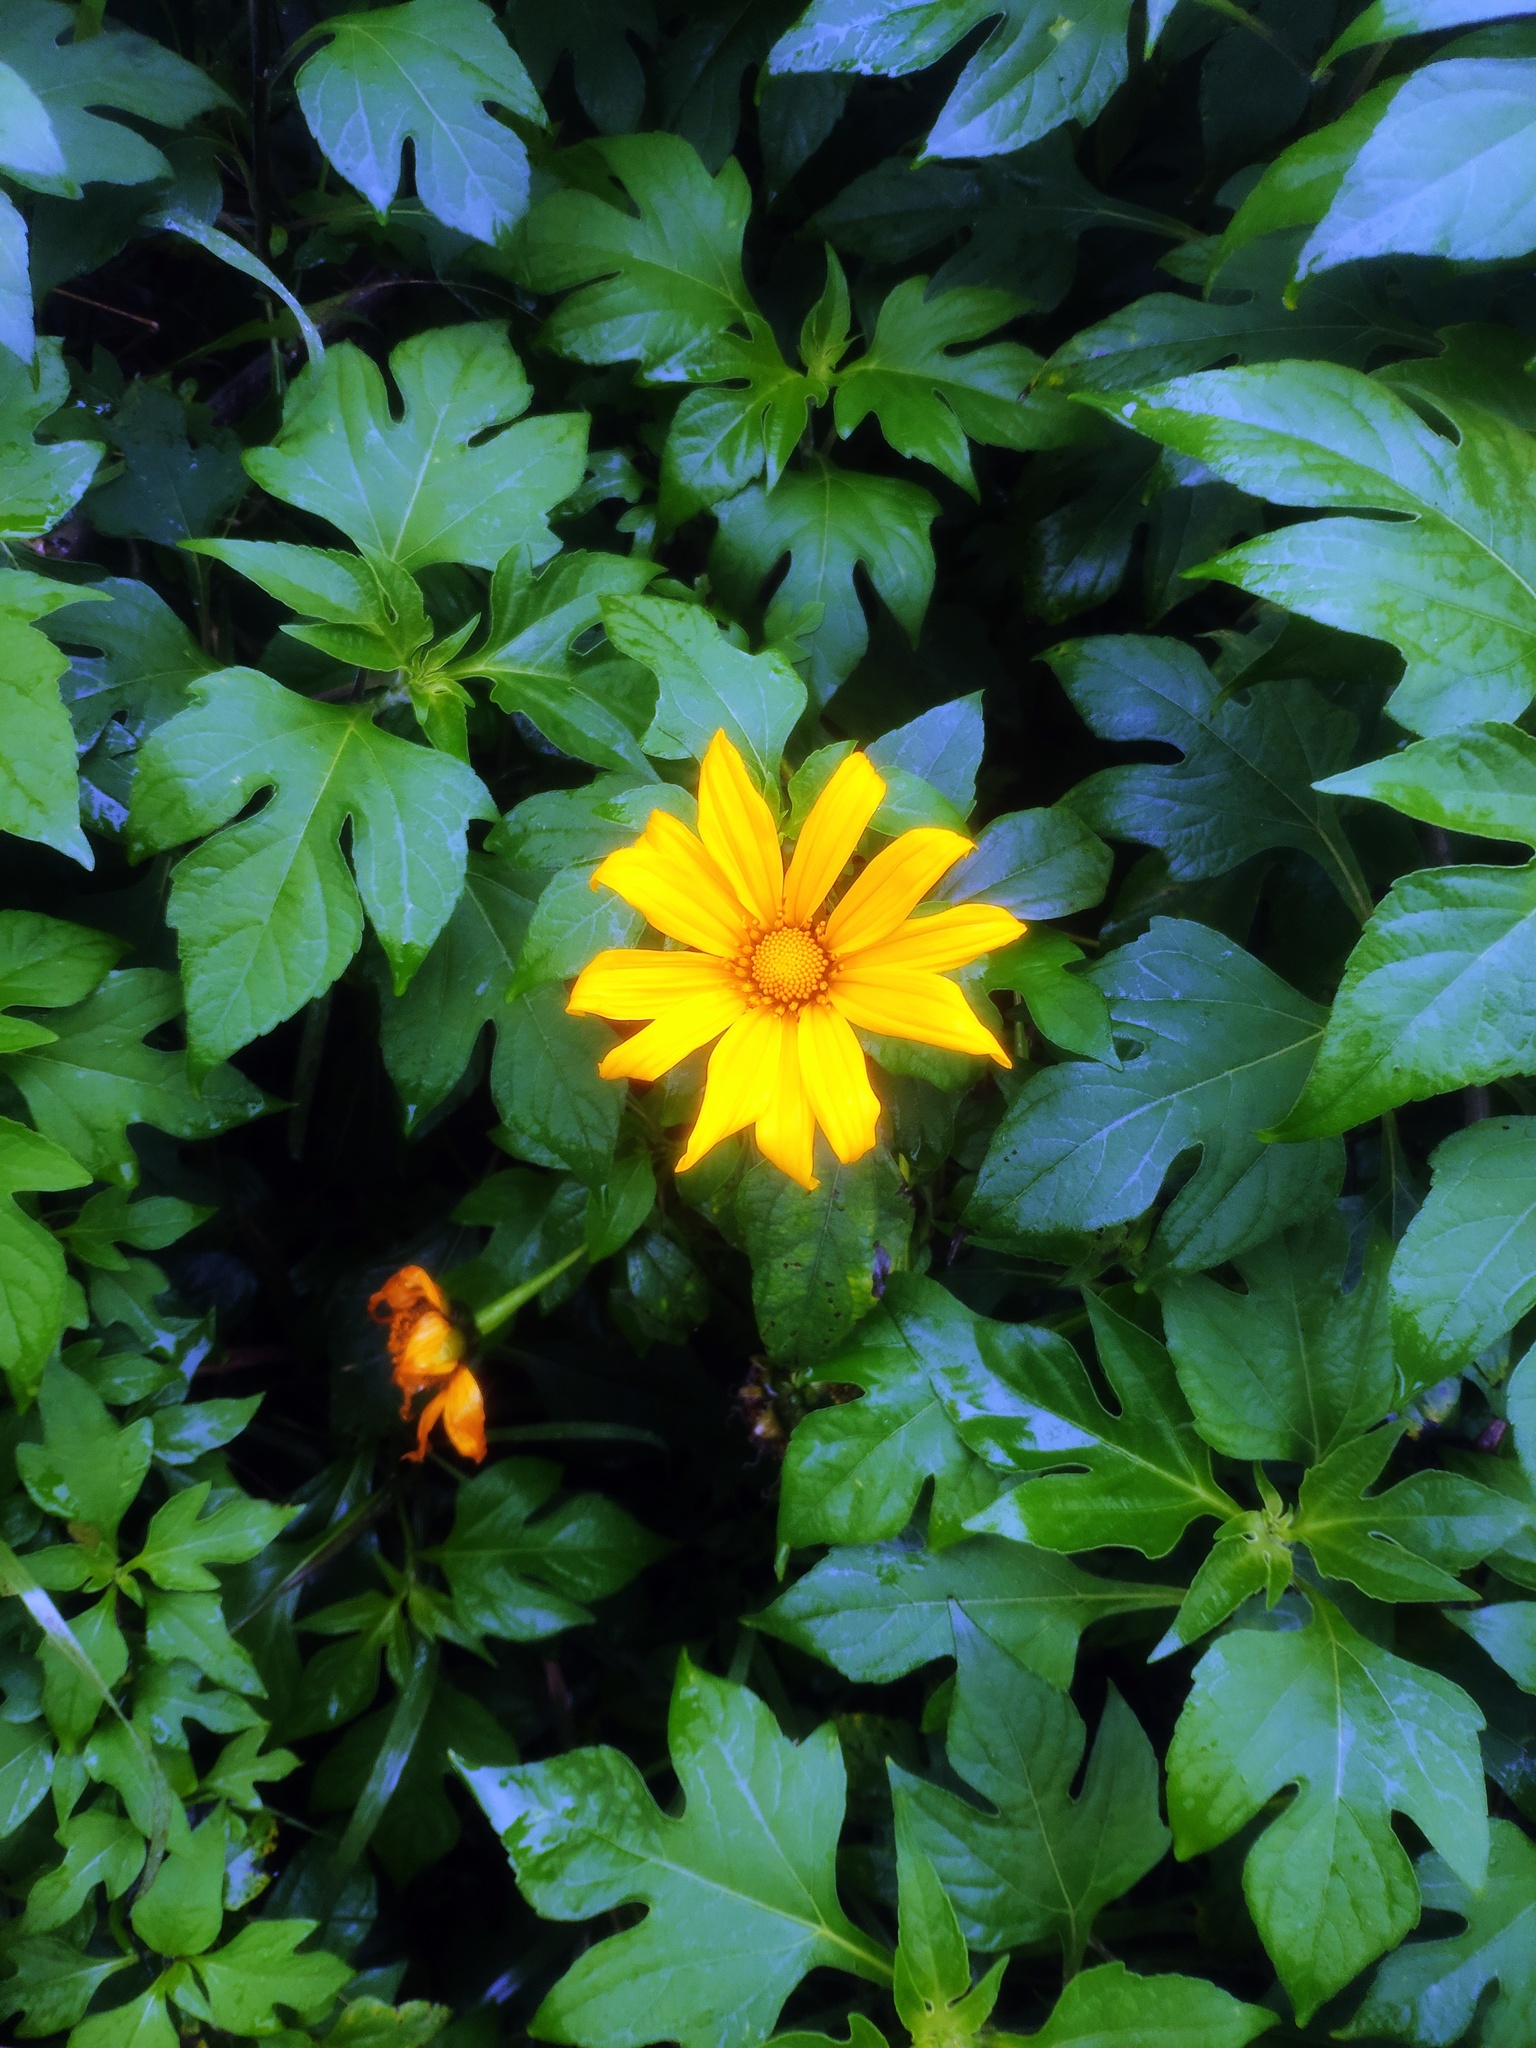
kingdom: Plantae
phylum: Tracheophyta
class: Magnoliopsida
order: Asterales
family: Asteraceae
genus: Tithonia
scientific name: Tithonia diversifolia
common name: Tree marigold
